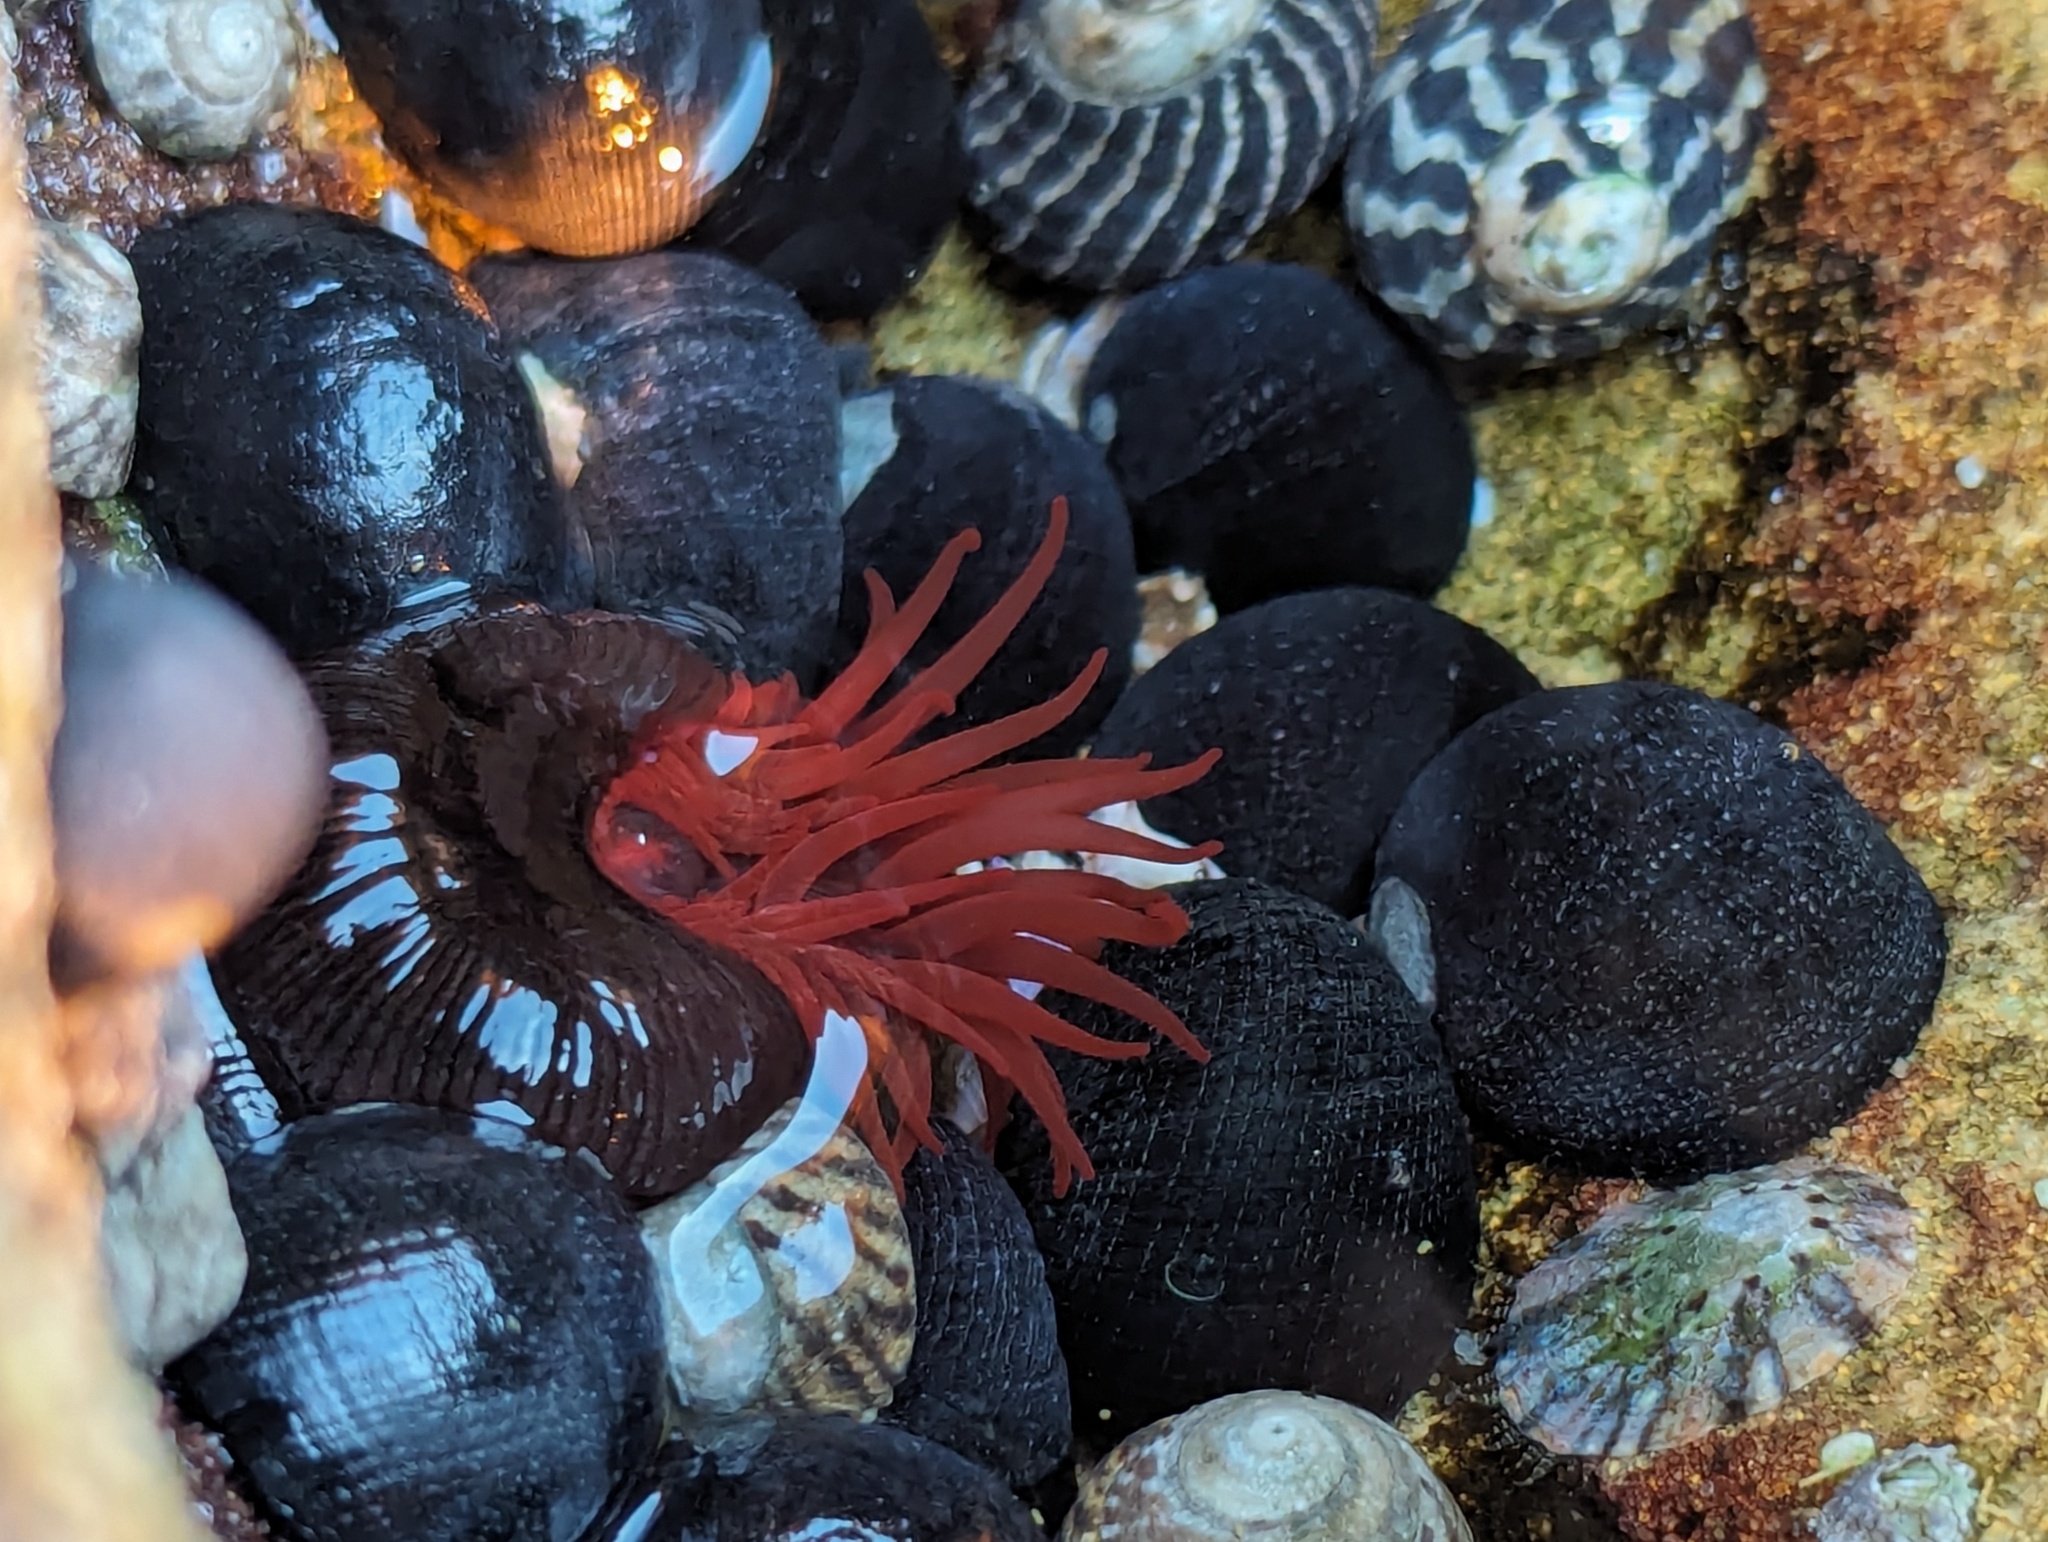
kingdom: Animalia
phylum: Cnidaria
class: Anthozoa
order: Actiniaria
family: Actiniidae
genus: Actinia
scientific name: Actinia tenebrosa
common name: Waratah anemone
